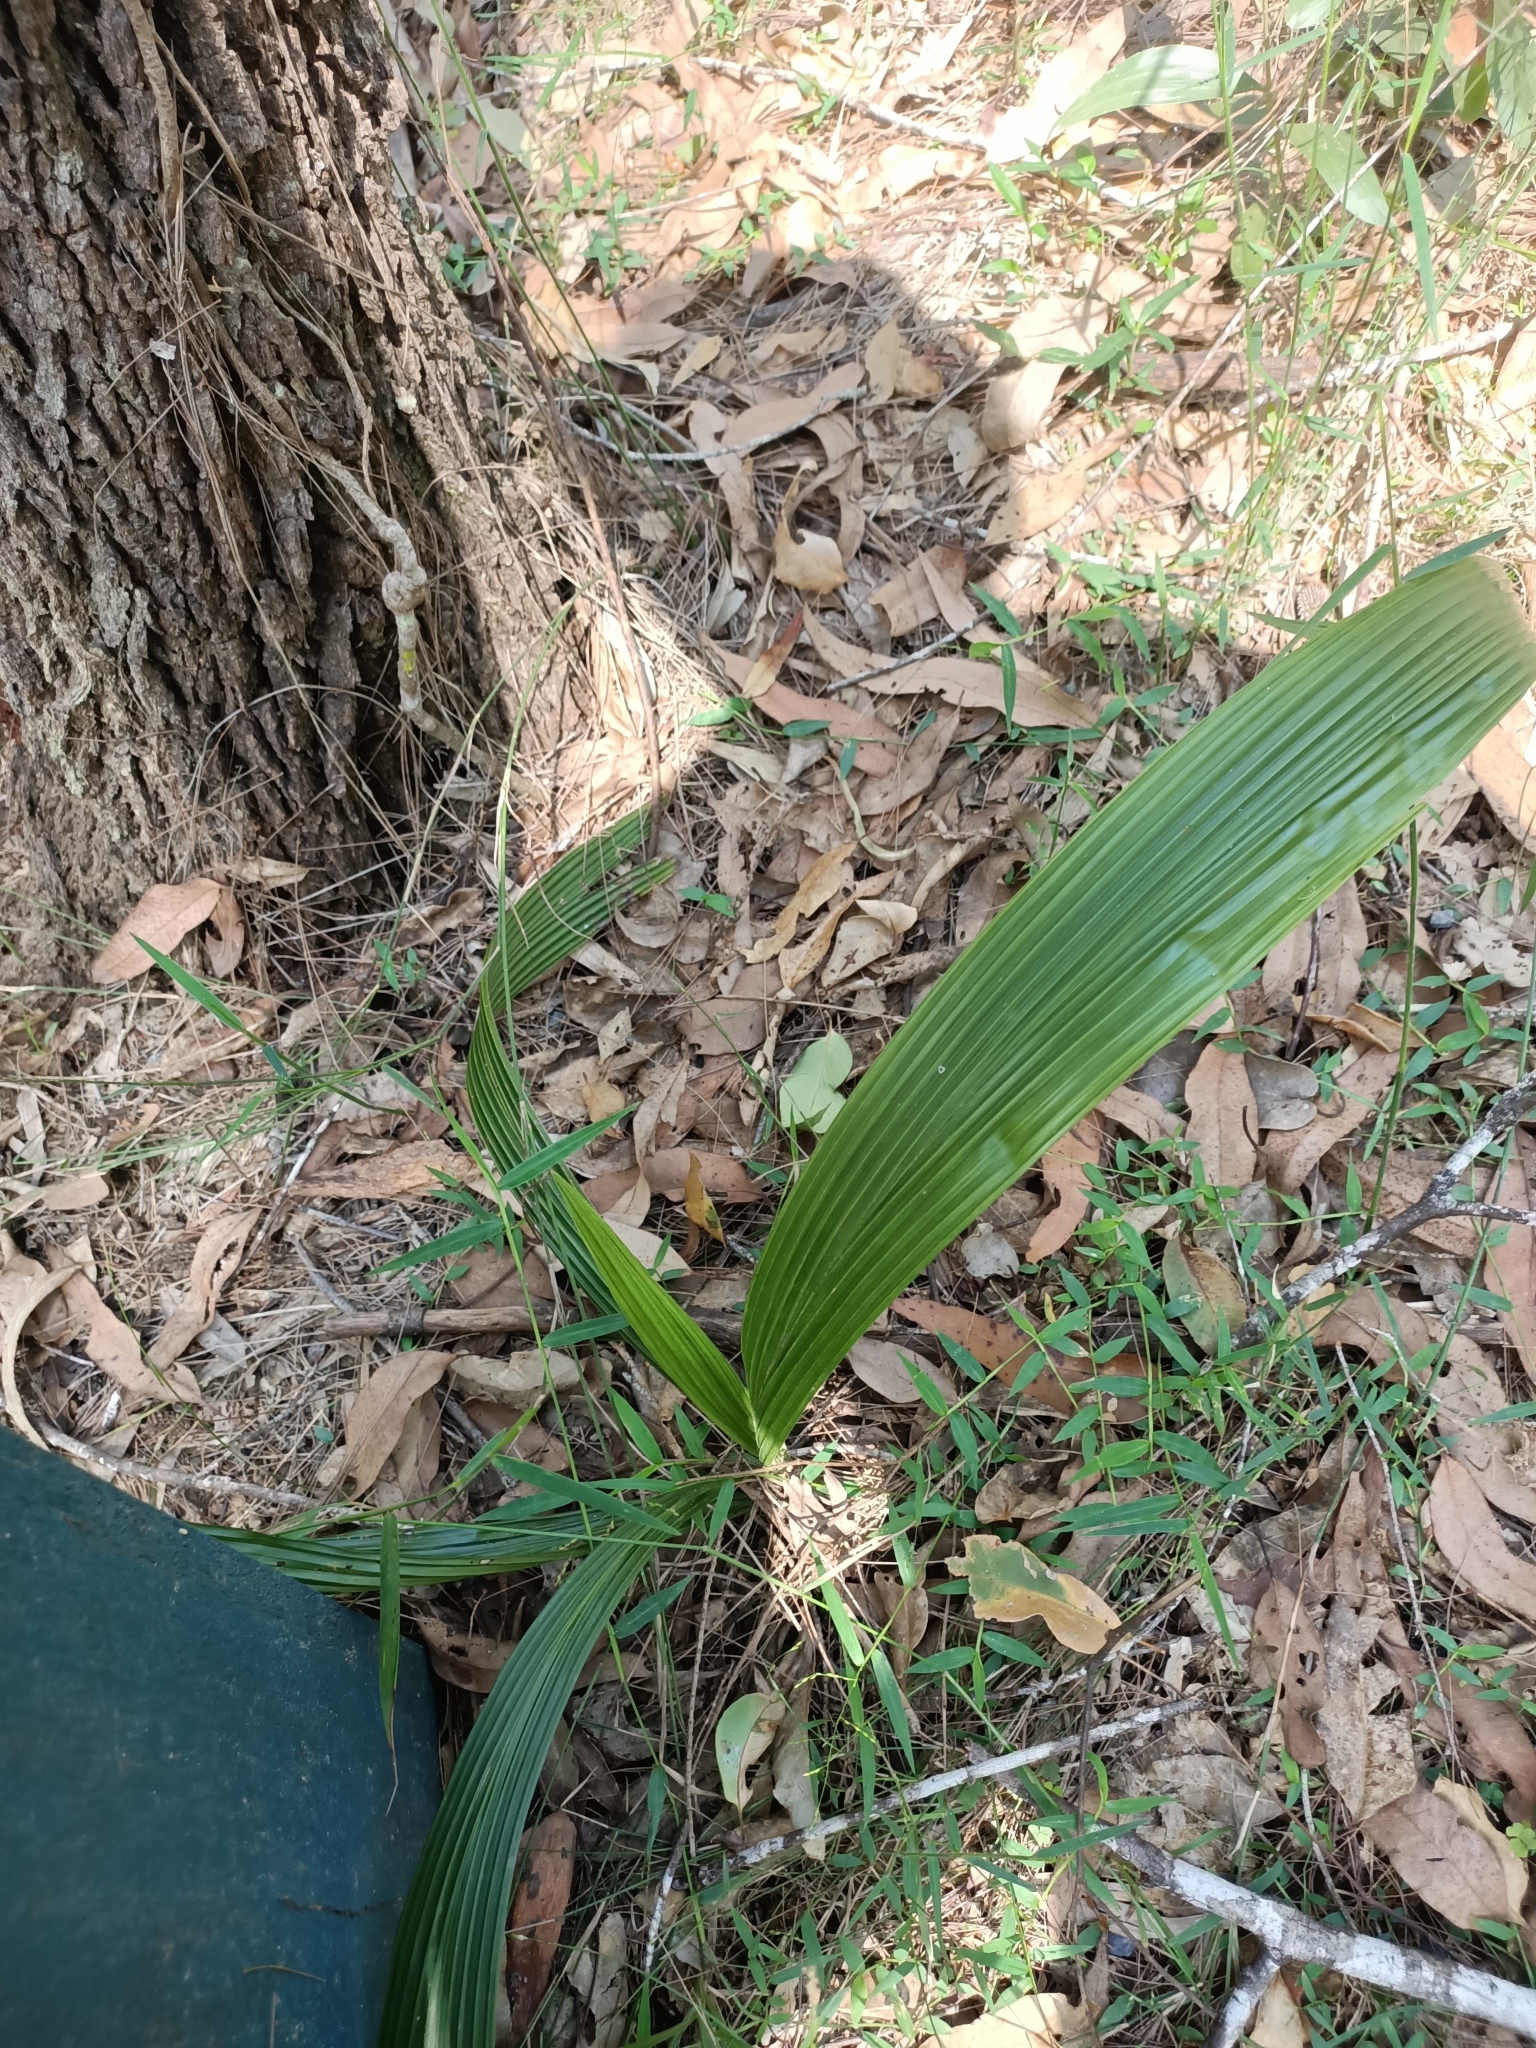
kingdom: Plantae
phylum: Tracheophyta
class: Liliopsida
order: Arecales
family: Arecaceae
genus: Syagrus
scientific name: Syagrus romanzoffiana
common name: Queen palm
